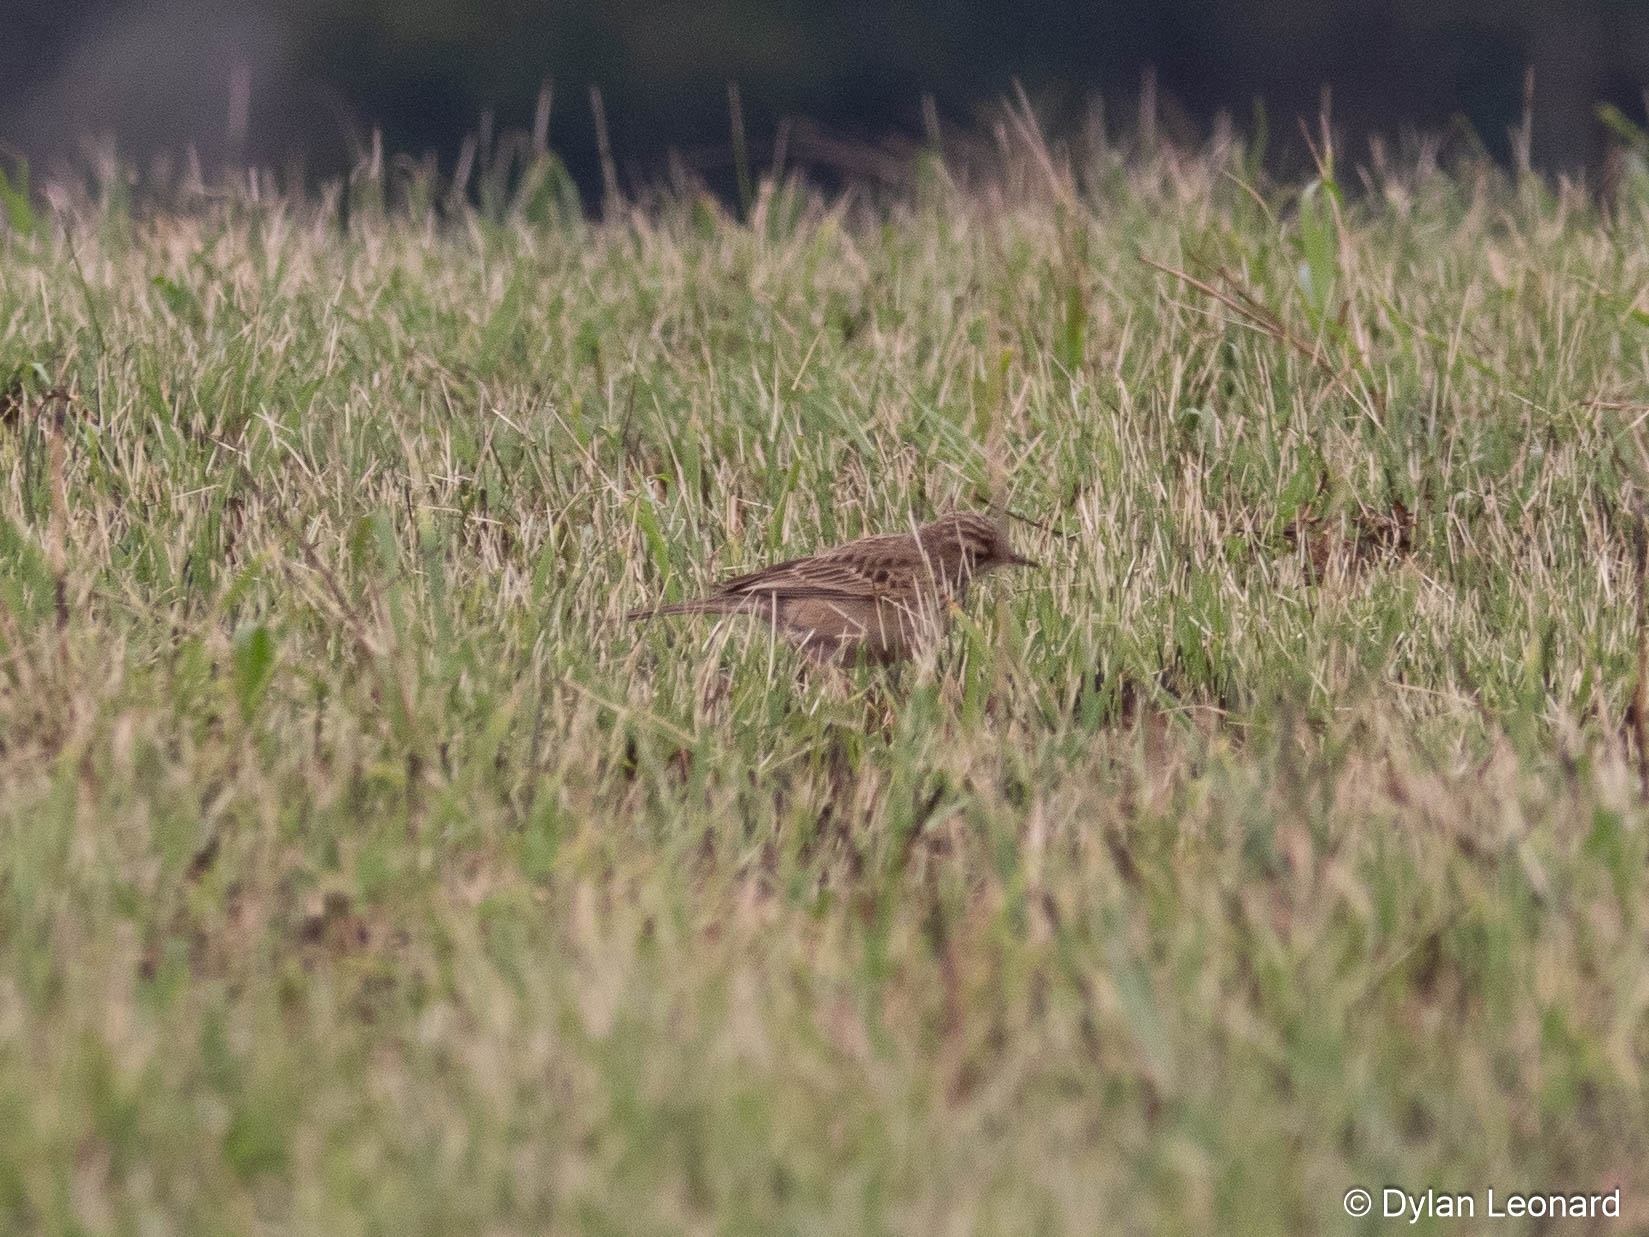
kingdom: Animalia
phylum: Chordata
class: Aves
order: Passeriformes
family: Motacillidae
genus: Anthus
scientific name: Anthus cinnamomeus
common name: African pipit
